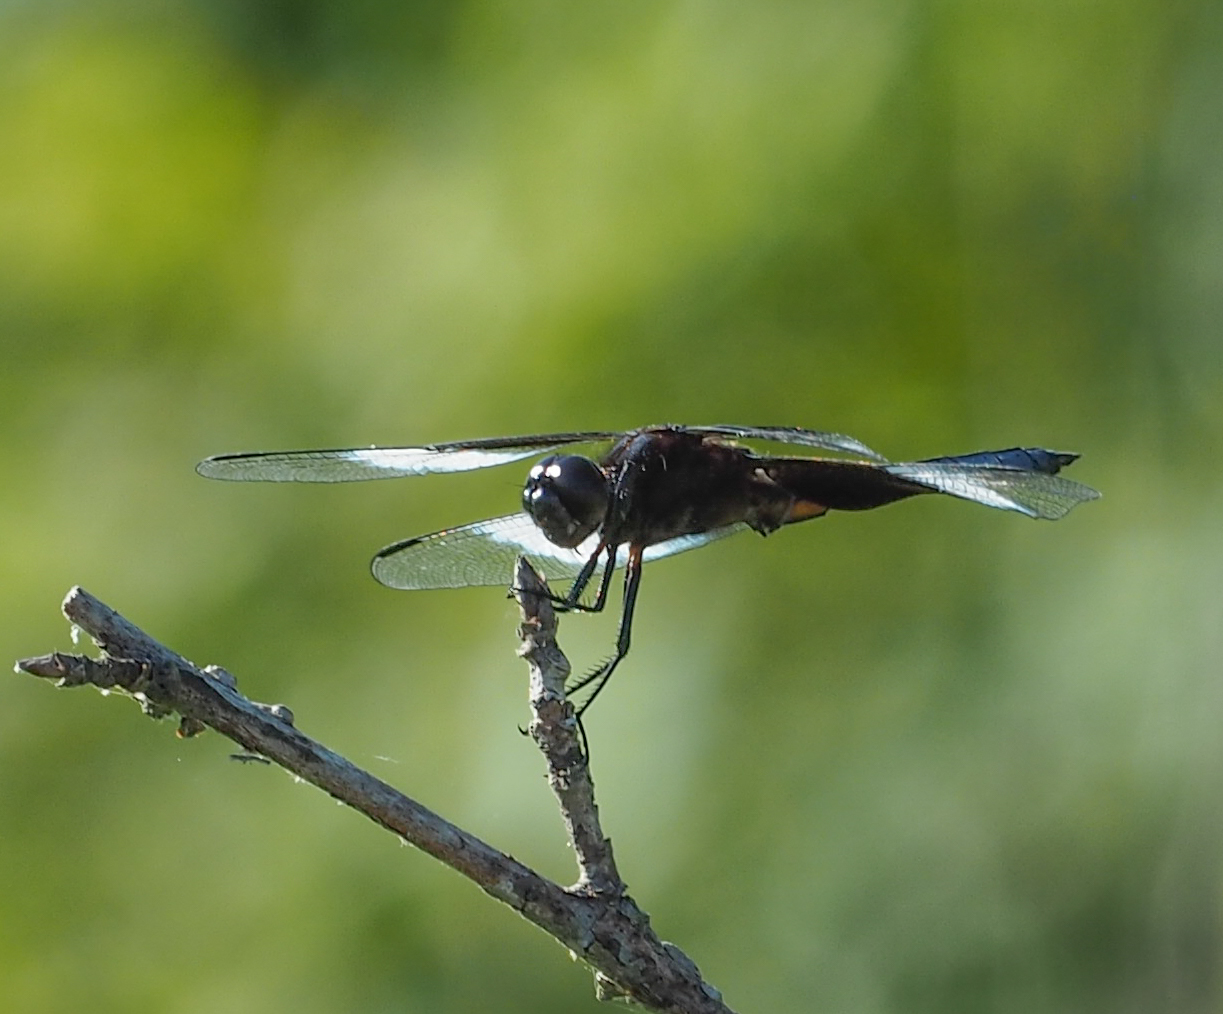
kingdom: Animalia
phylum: Arthropoda
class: Insecta
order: Odonata
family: Libellulidae
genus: Libellula
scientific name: Libellula luctuosa
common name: Widow skimmer
